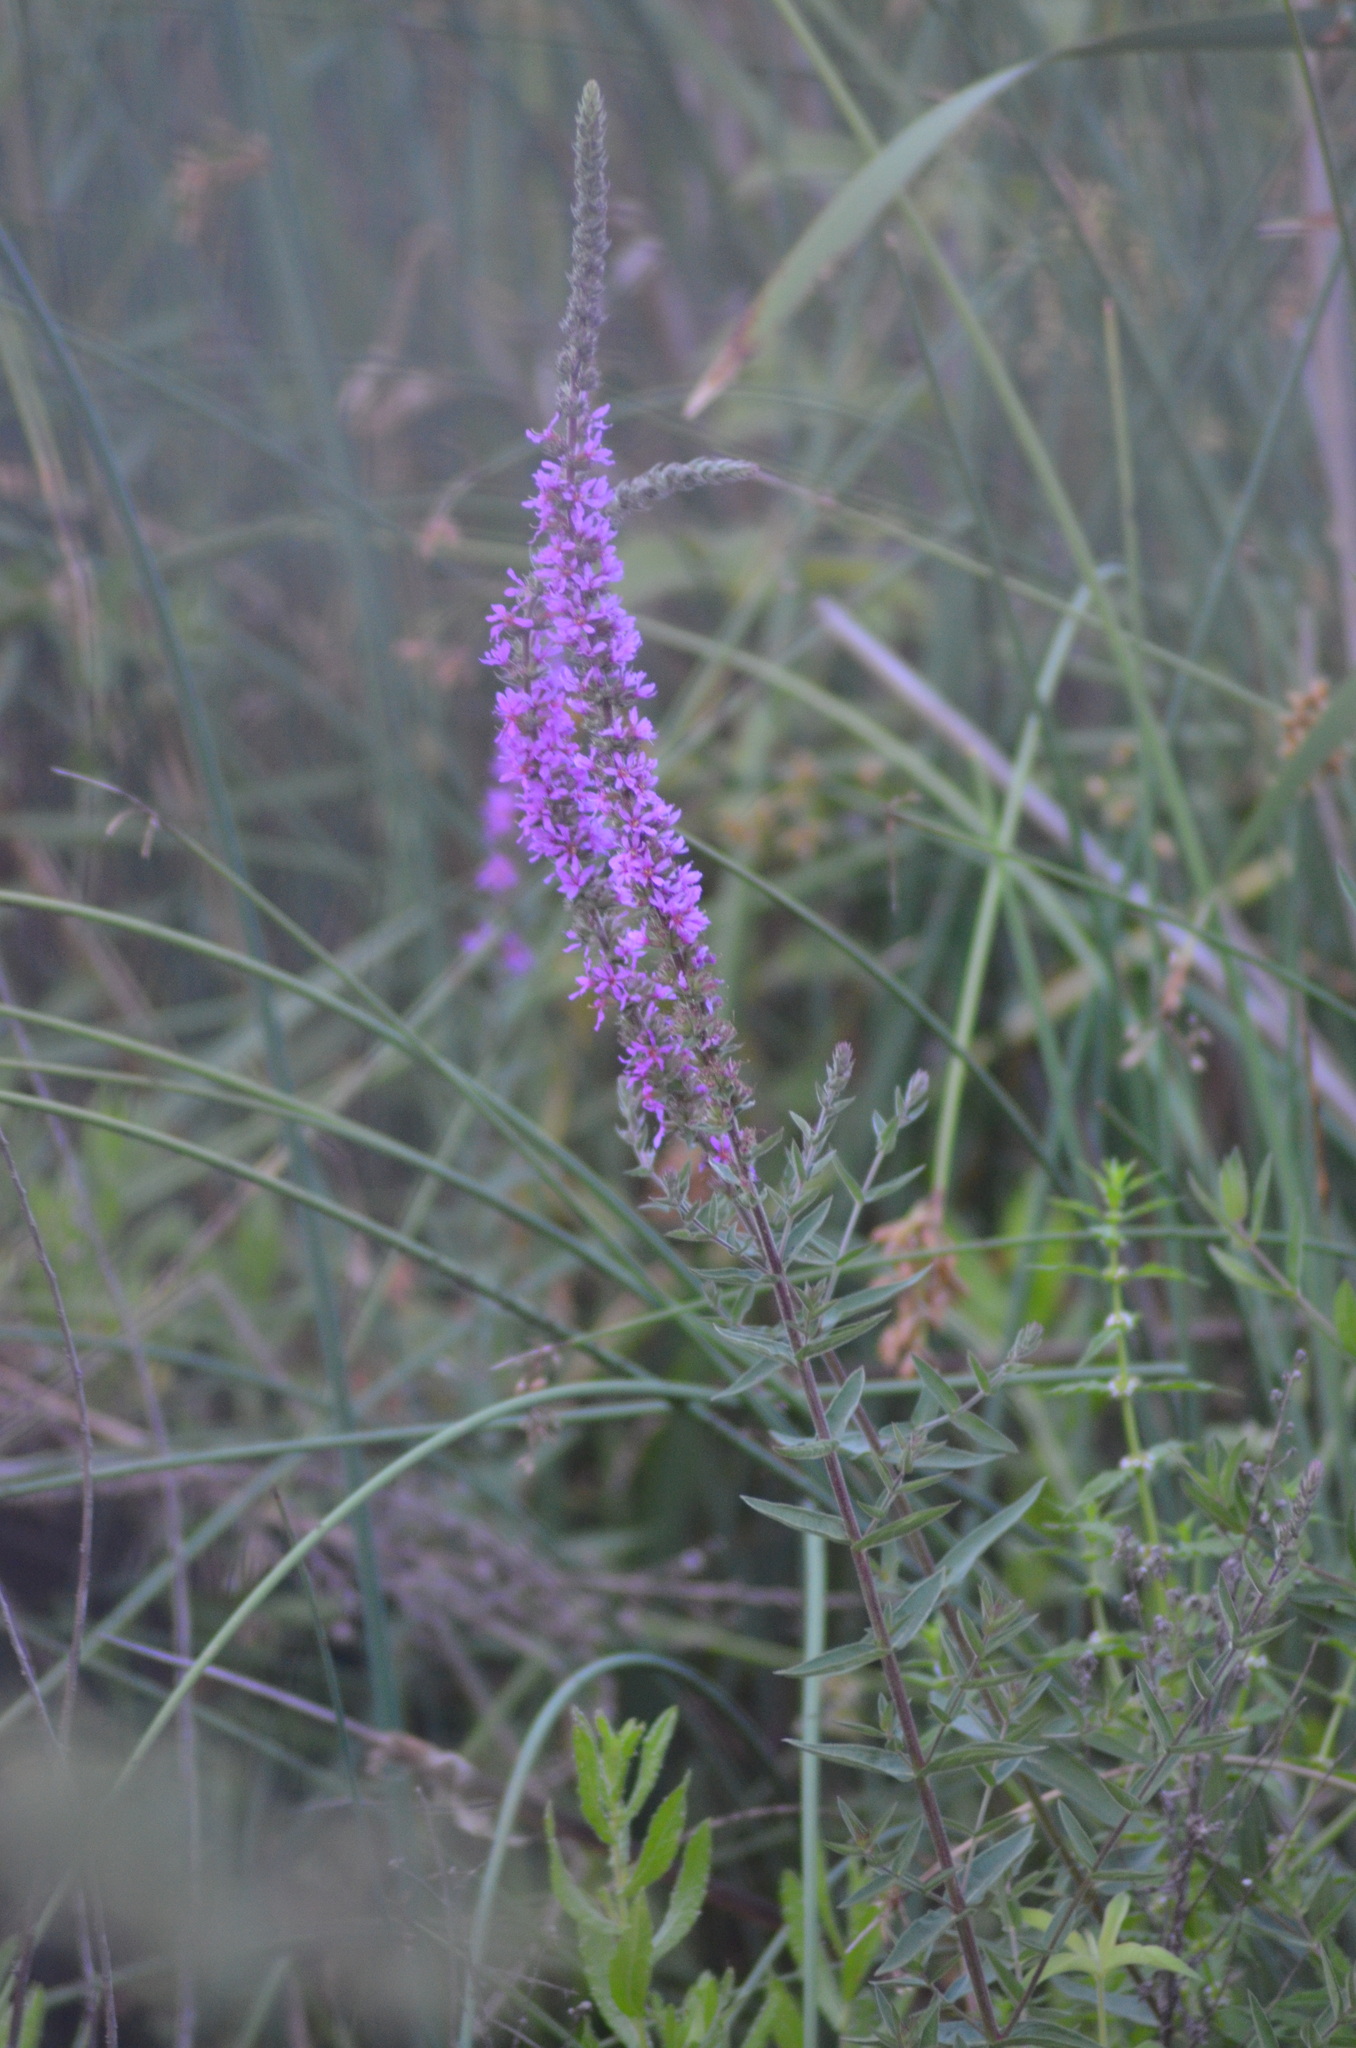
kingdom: Plantae
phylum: Tracheophyta
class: Magnoliopsida
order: Myrtales
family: Lythraceae
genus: Lythrum
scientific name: Lythrum salicaria
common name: Purple loosestrife
